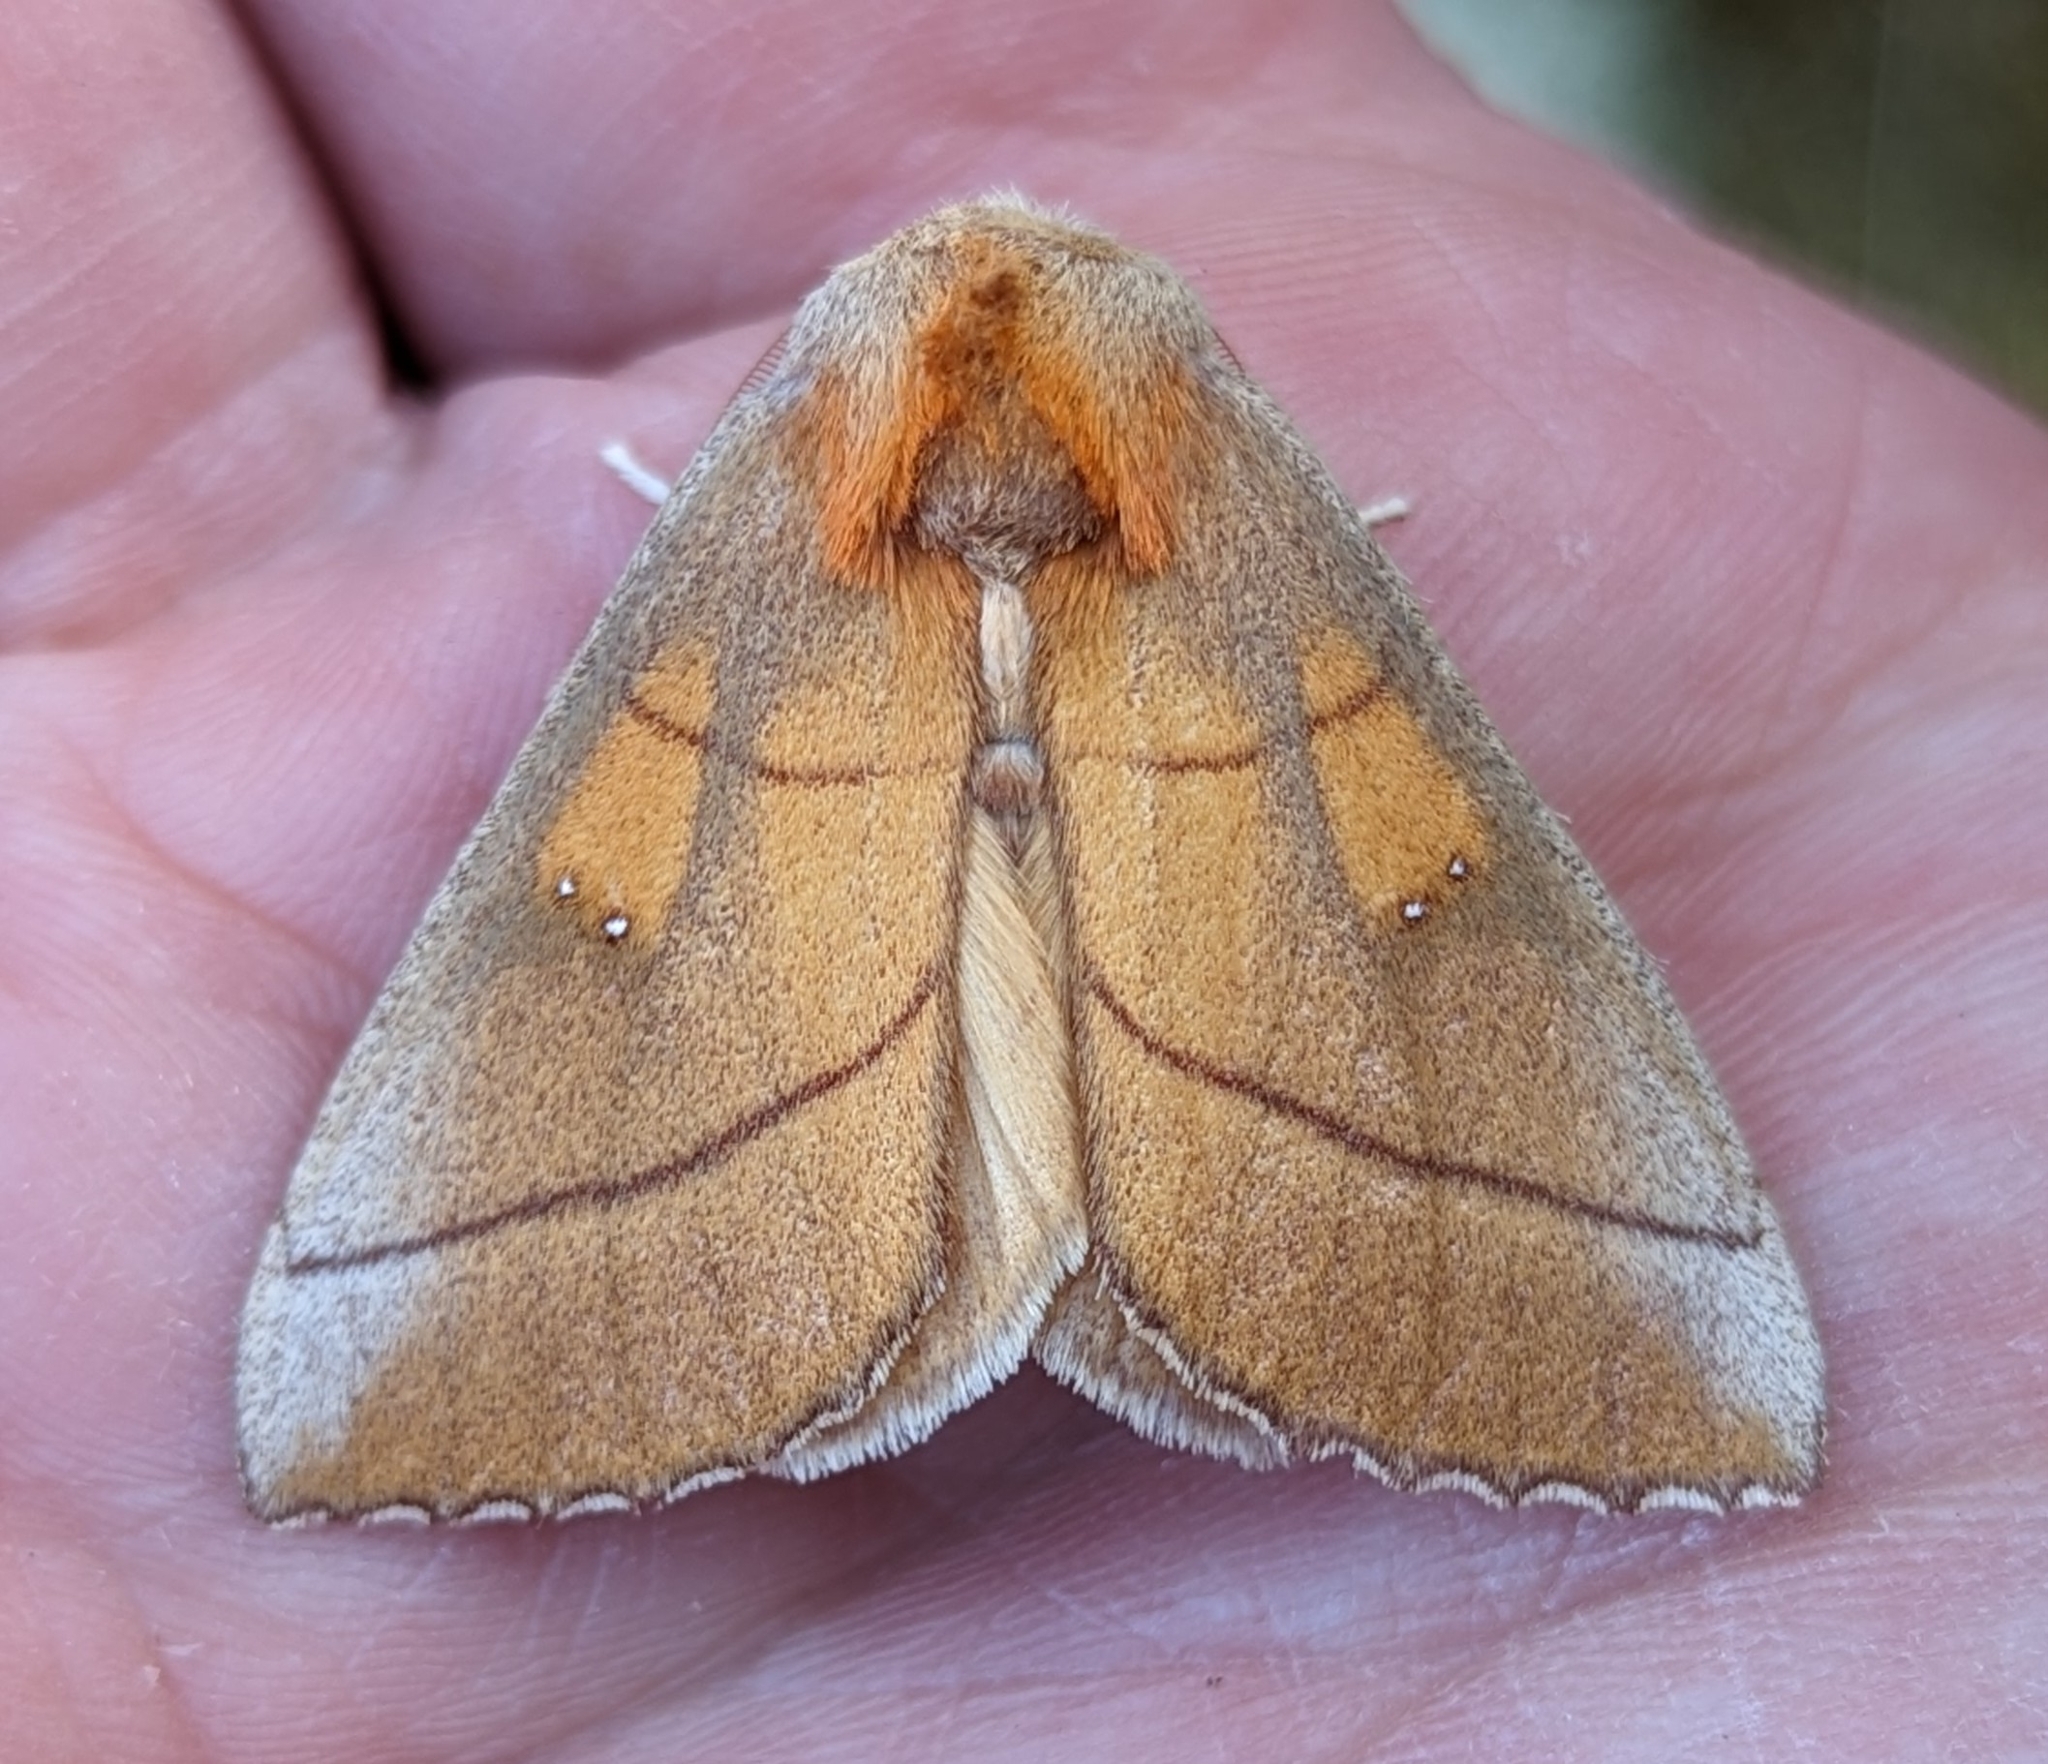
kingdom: Animalia
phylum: Arthropoda
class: Insecta
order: Lepidoptera
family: Notodontidae
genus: Nadata
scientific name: Nadata gibbosa
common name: White-dotted prominent
